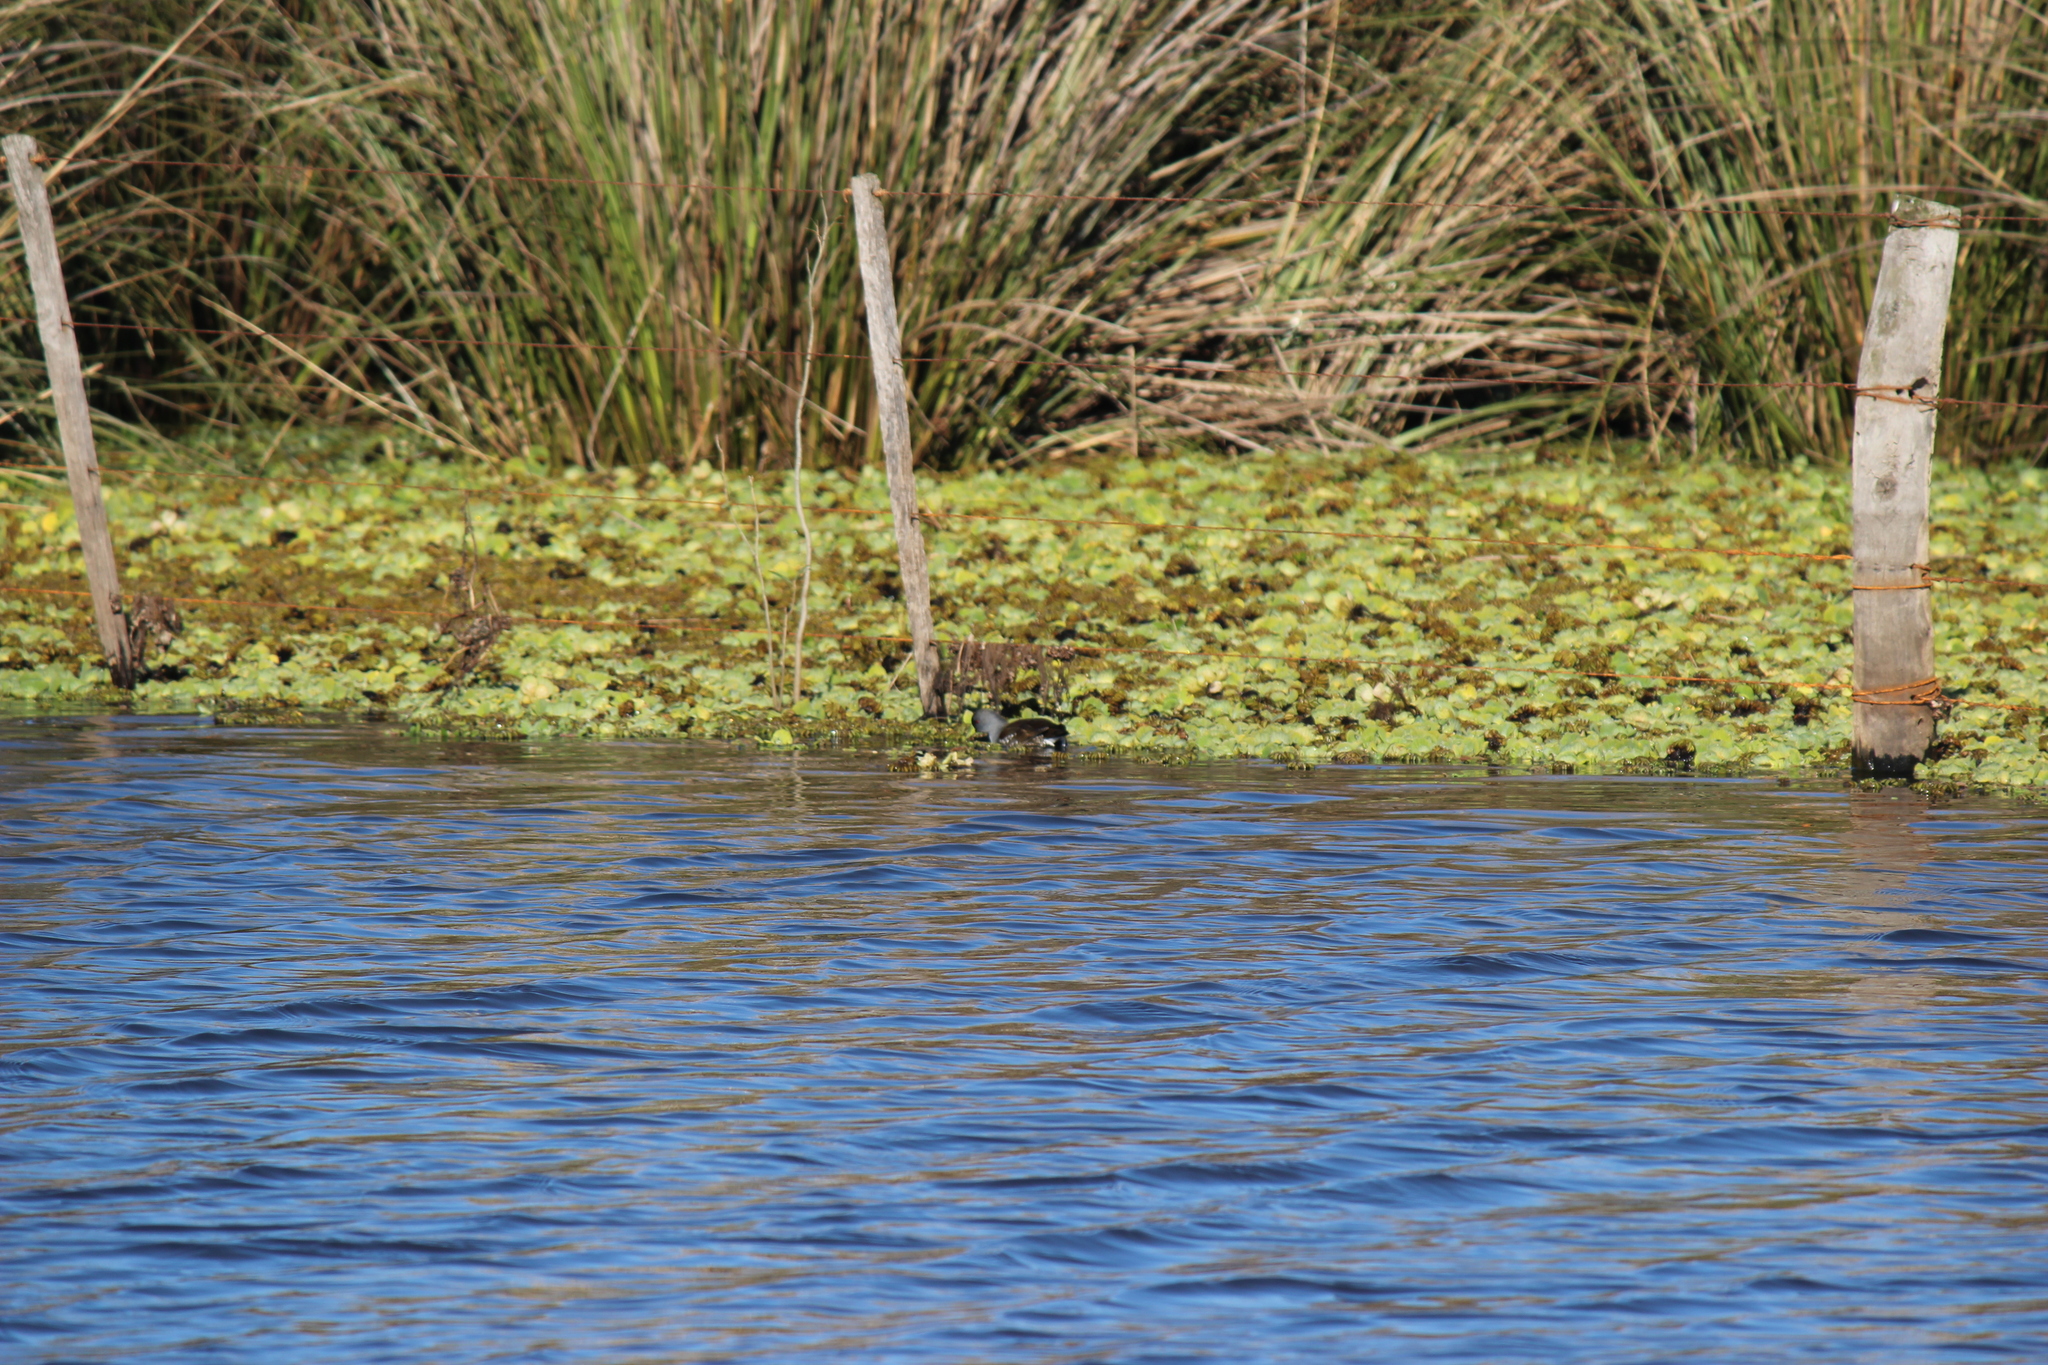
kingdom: Animalia
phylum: Chordata
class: Aves
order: Gruiformes
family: Rallidae
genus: Gallinula
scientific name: Gallinula melanops
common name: Spot-flanked gallinule
